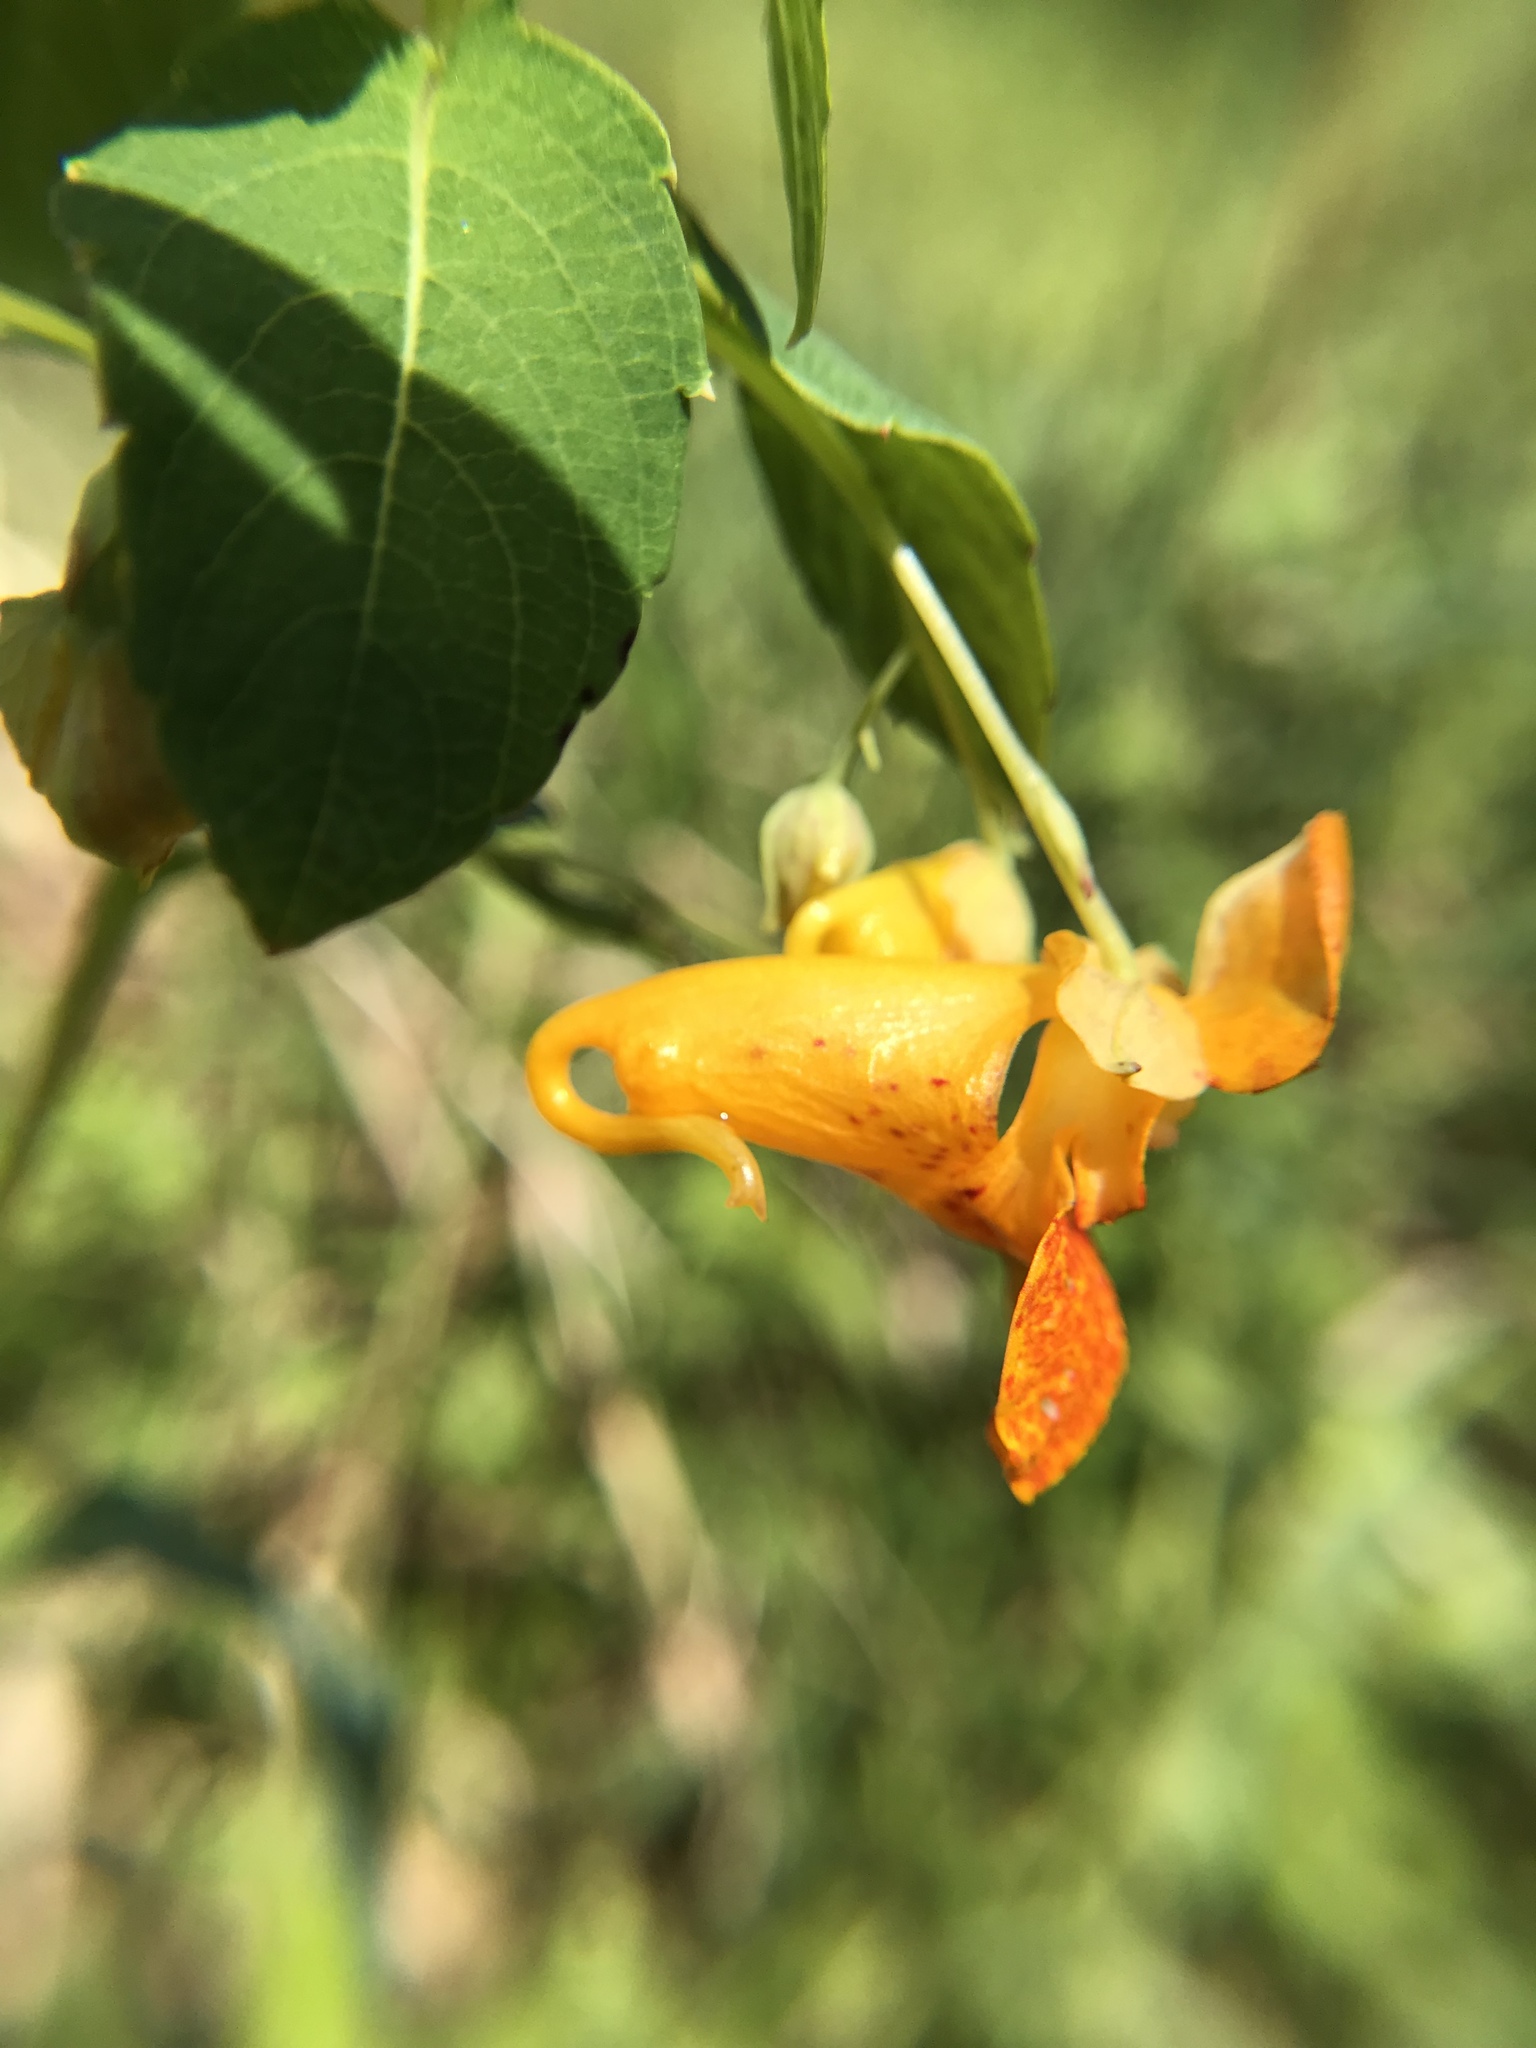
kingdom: Plantae
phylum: Tracheophyta
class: Magnoliopsida
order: Ericales
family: Balsaminaceae
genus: Impatiens
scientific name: Impatiens capensis
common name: Orange balsam
